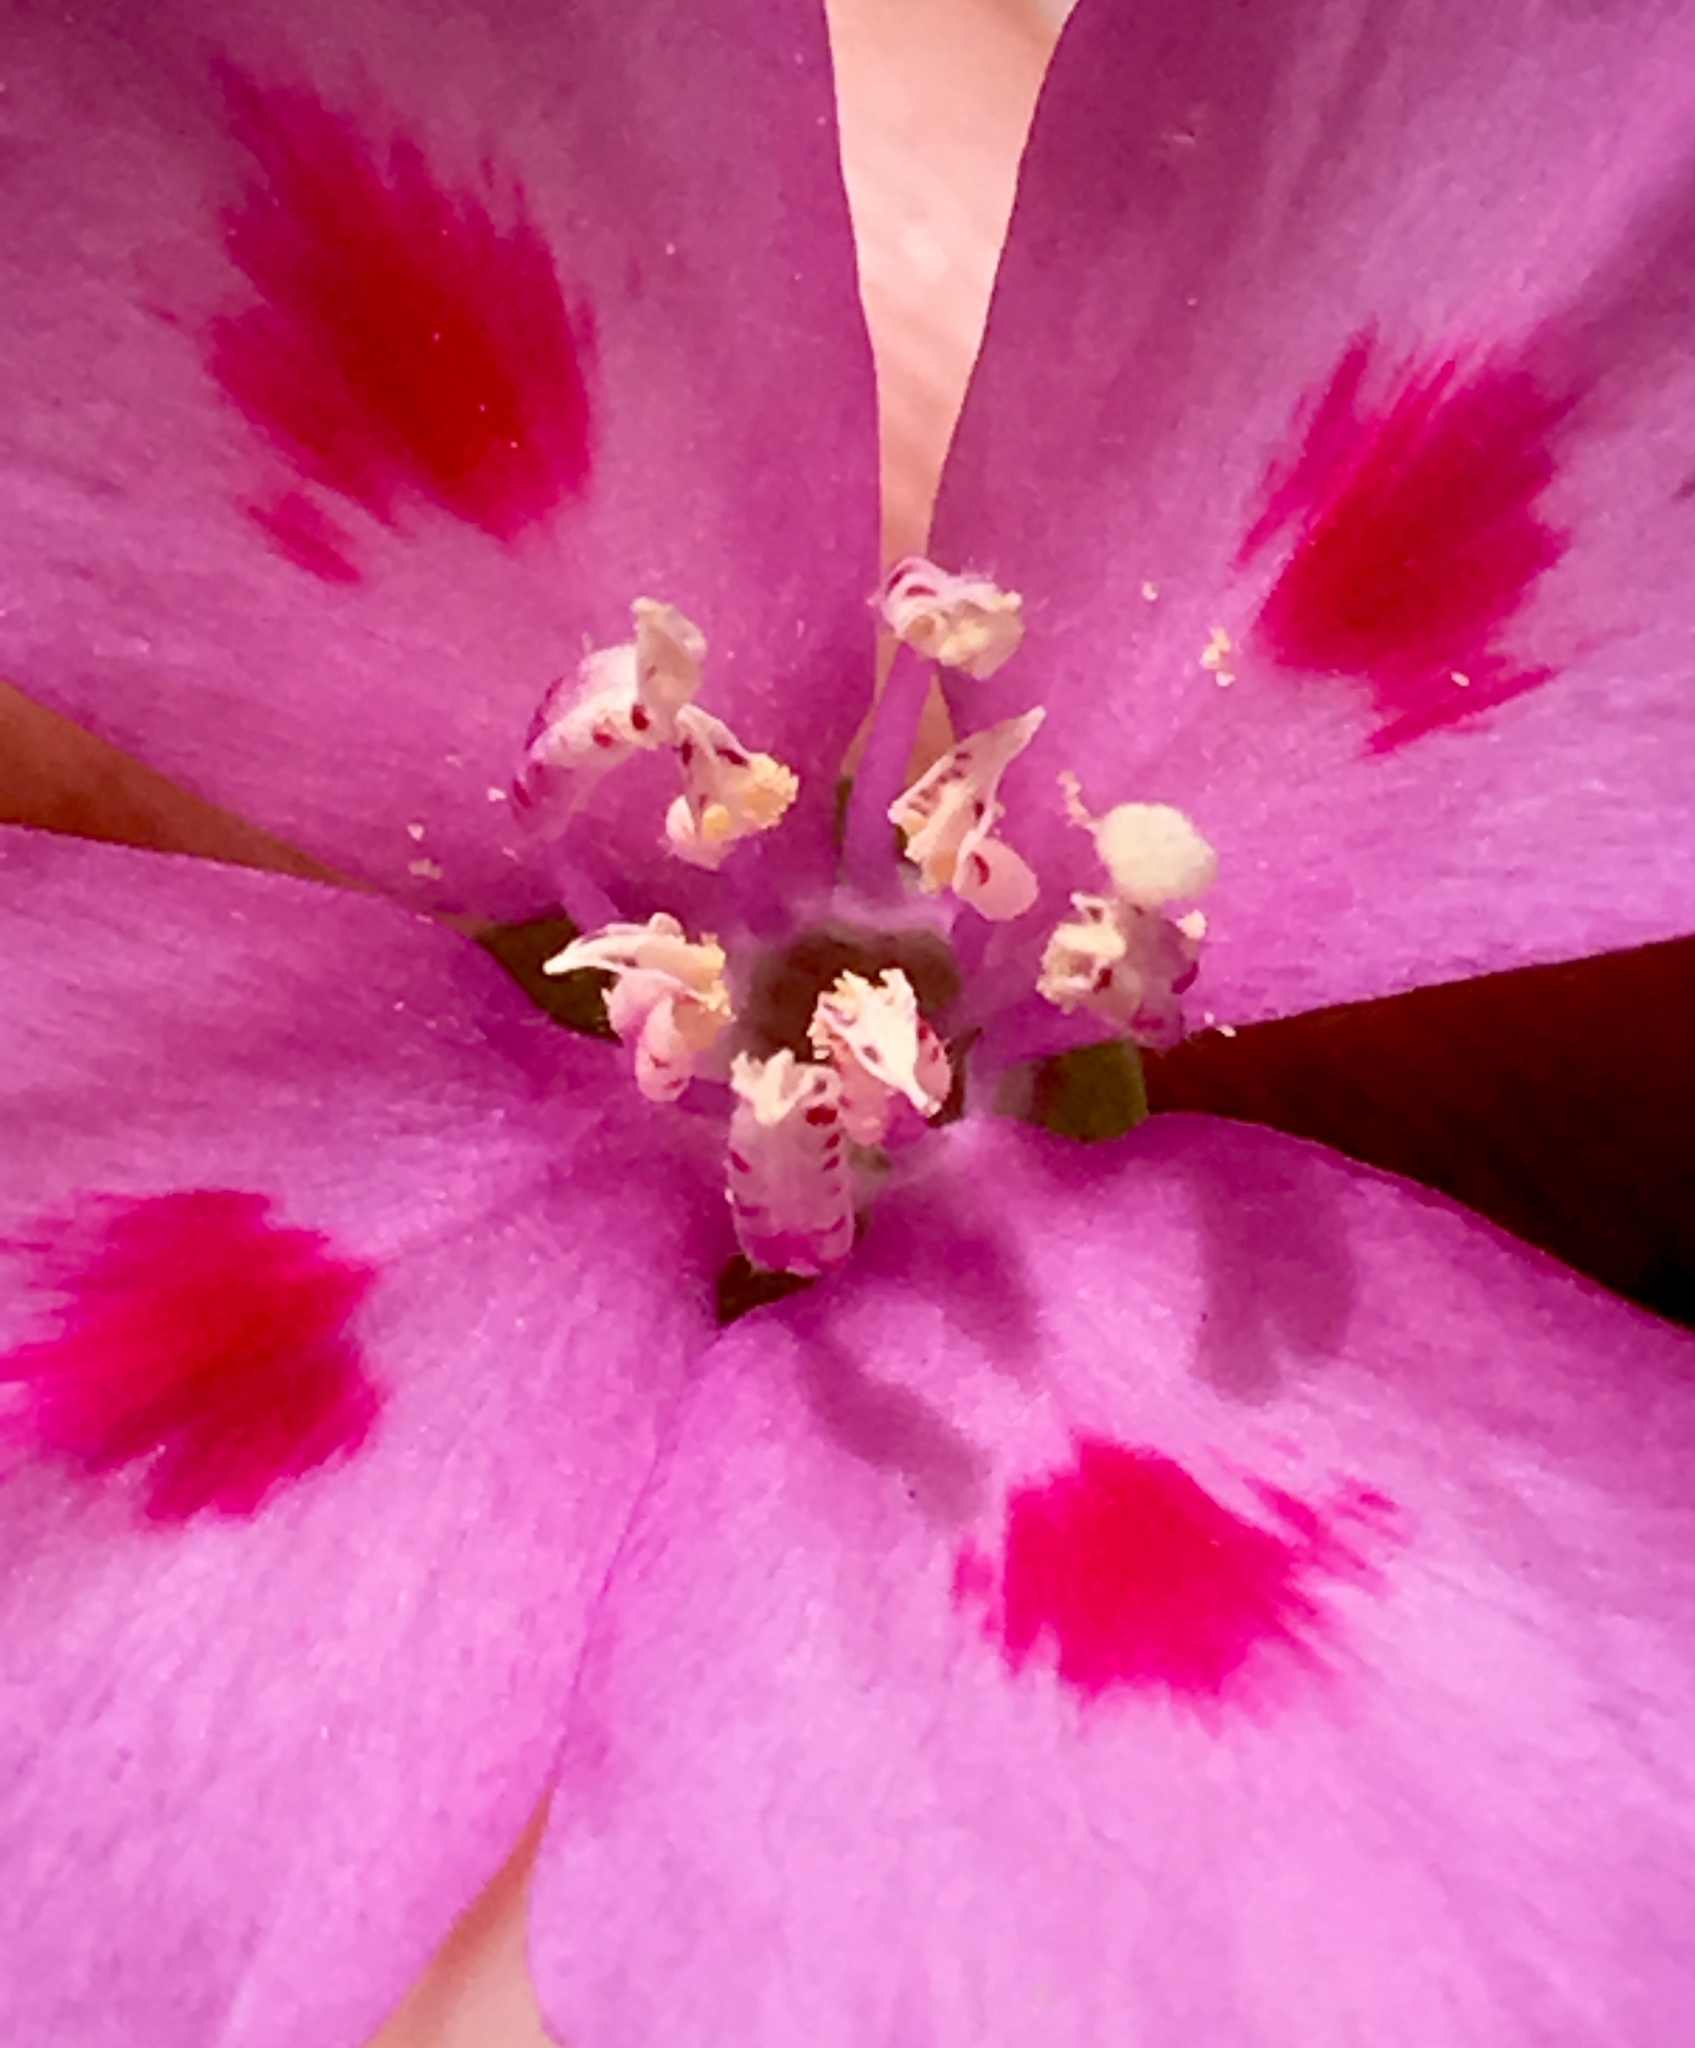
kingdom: Plantae
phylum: Tracheophyta
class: Magnoliopsida
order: Myrtales
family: Onagraceae
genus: Clarkia
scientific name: Clarkia amoena
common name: Godetia
